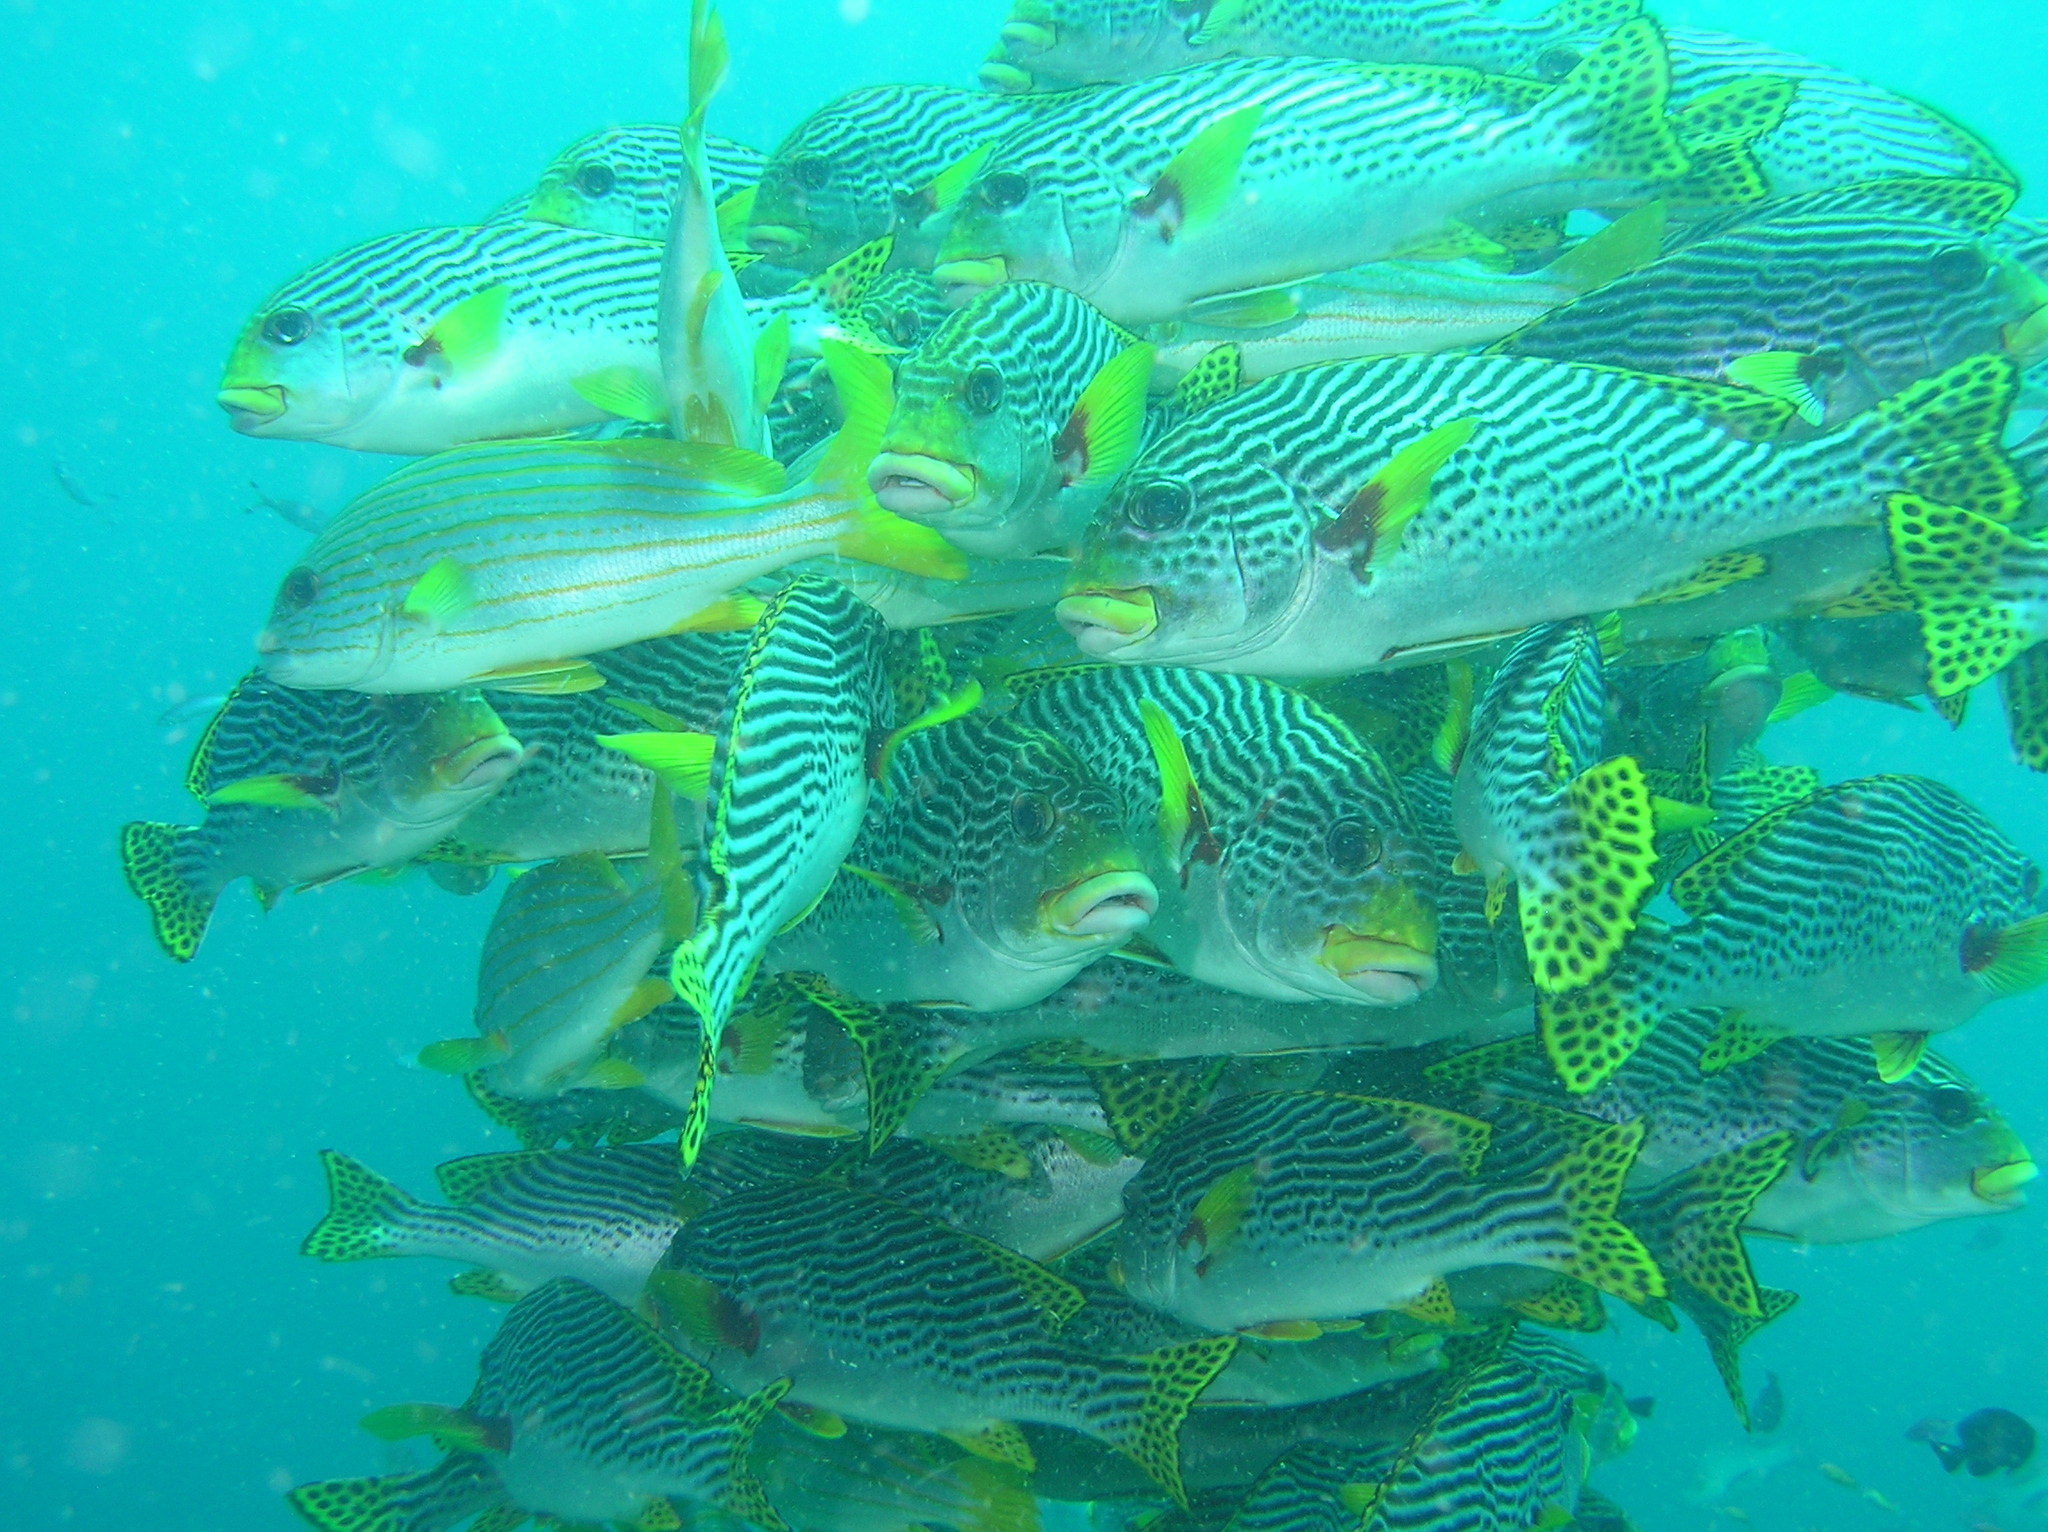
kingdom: Animalia
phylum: Chordata
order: Perciformes
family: Haemulidae
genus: Plectorhinchus
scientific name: Plectorhinchus lineatus
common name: Goldman's sweetlips
